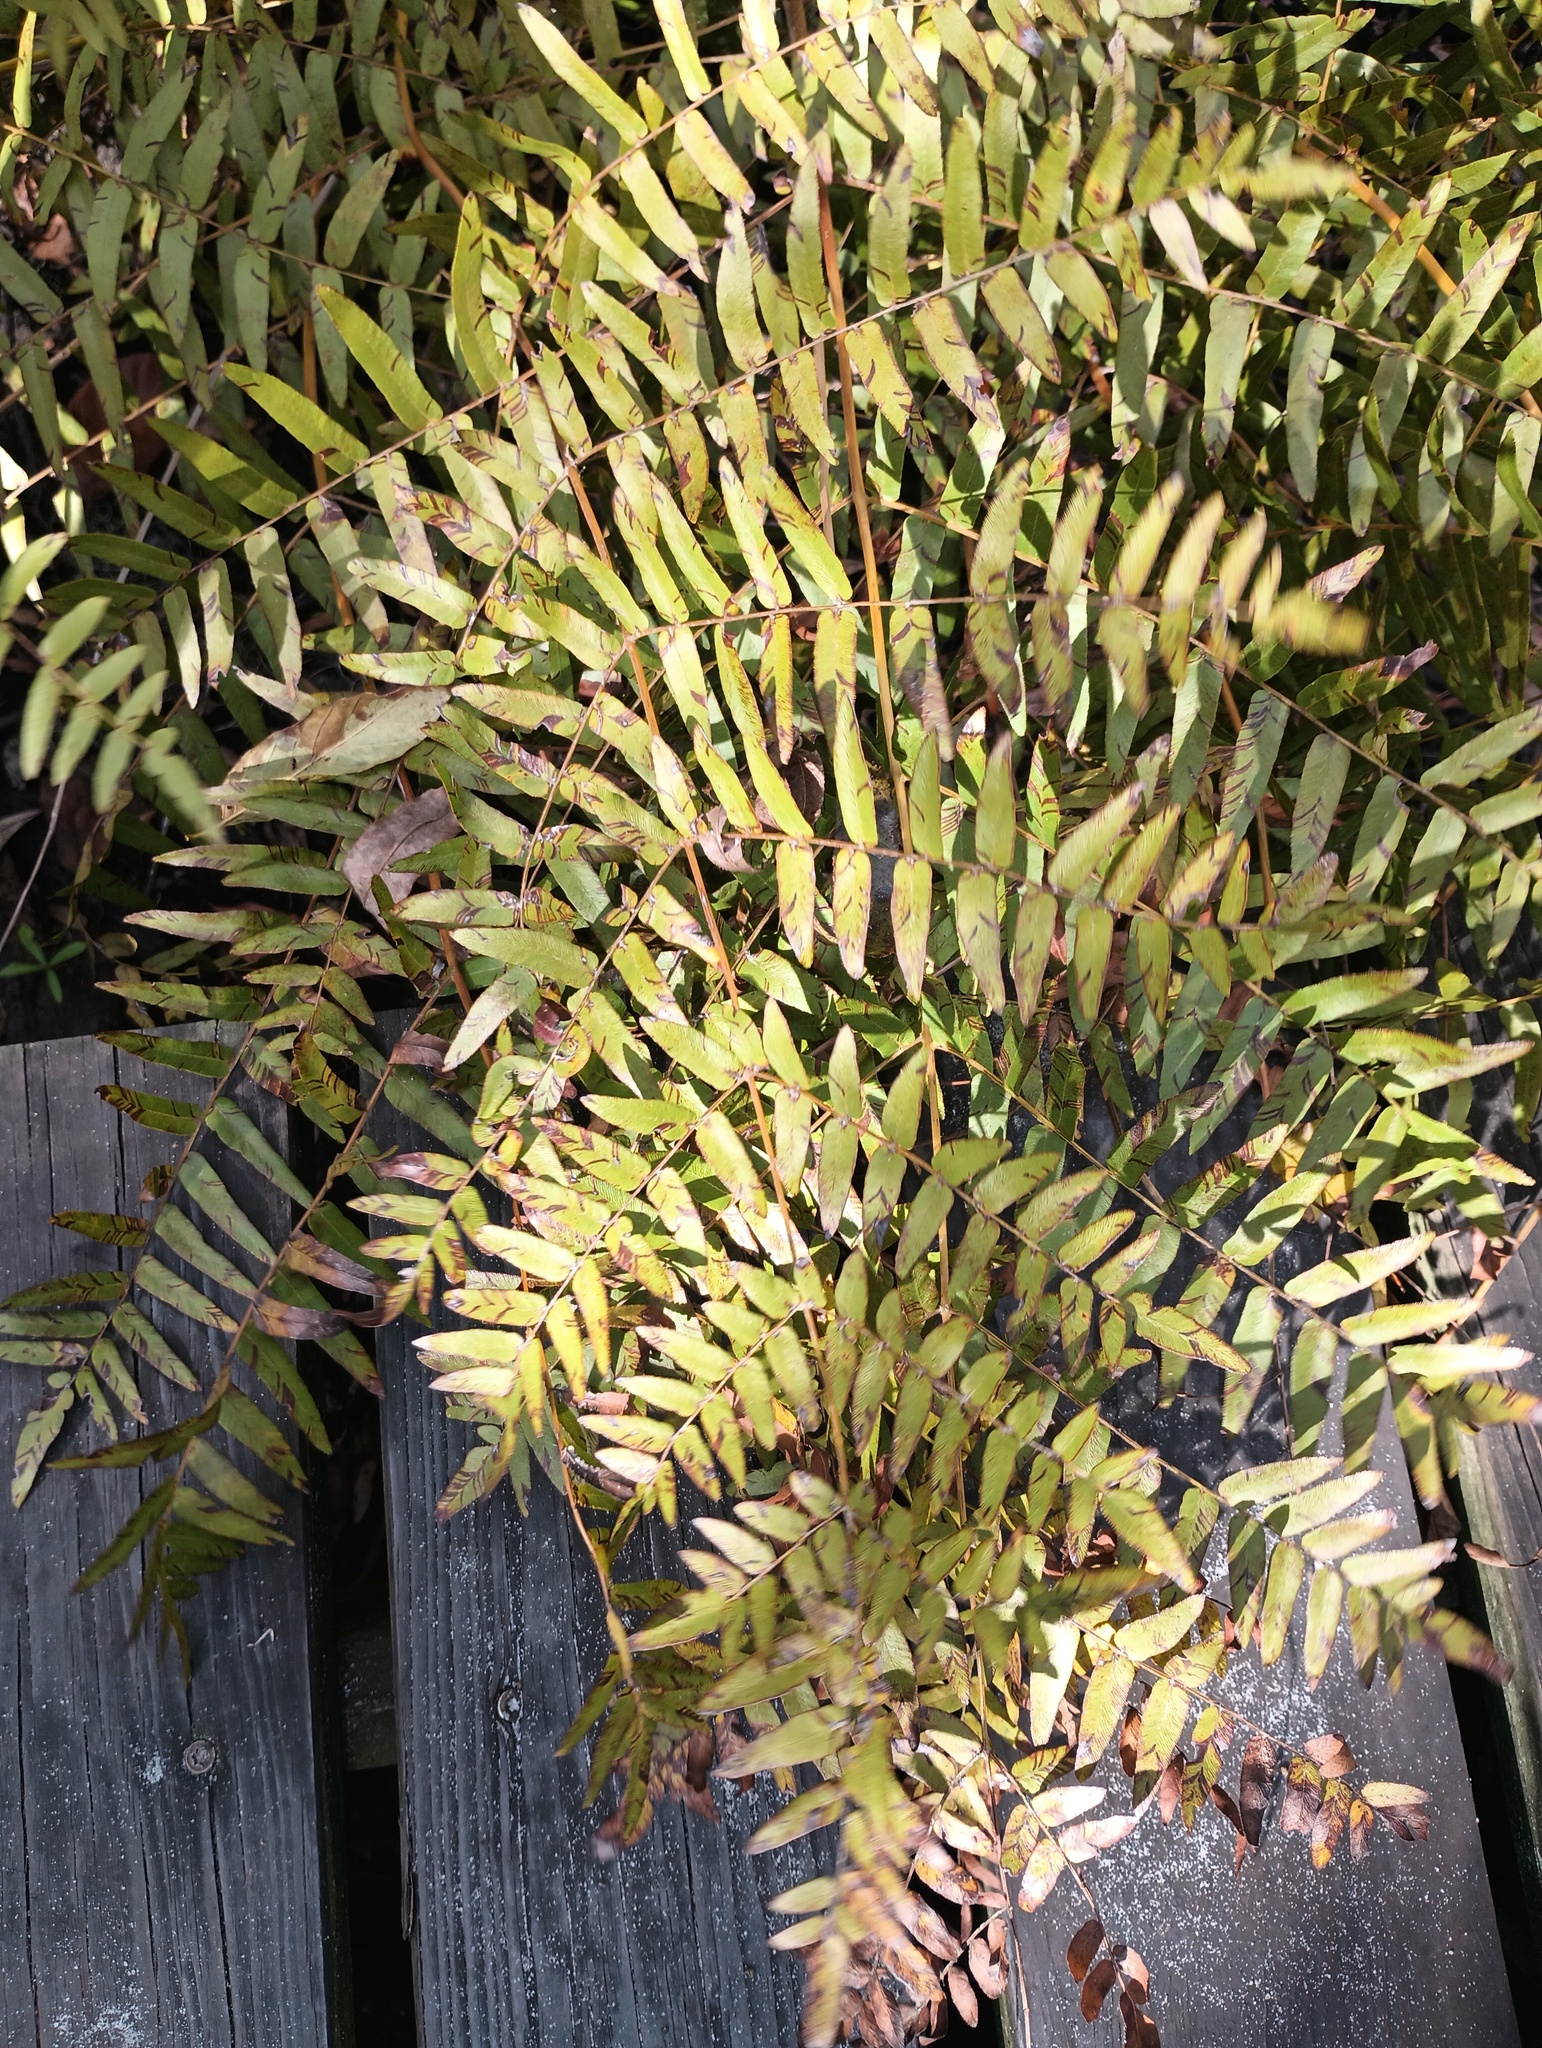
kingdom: Plantae
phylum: Tracheophyta
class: Polypodiopsida
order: Osmundales
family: Osmundaceae
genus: Osmunda
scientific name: Osmunda spectabilis
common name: American royal fern
